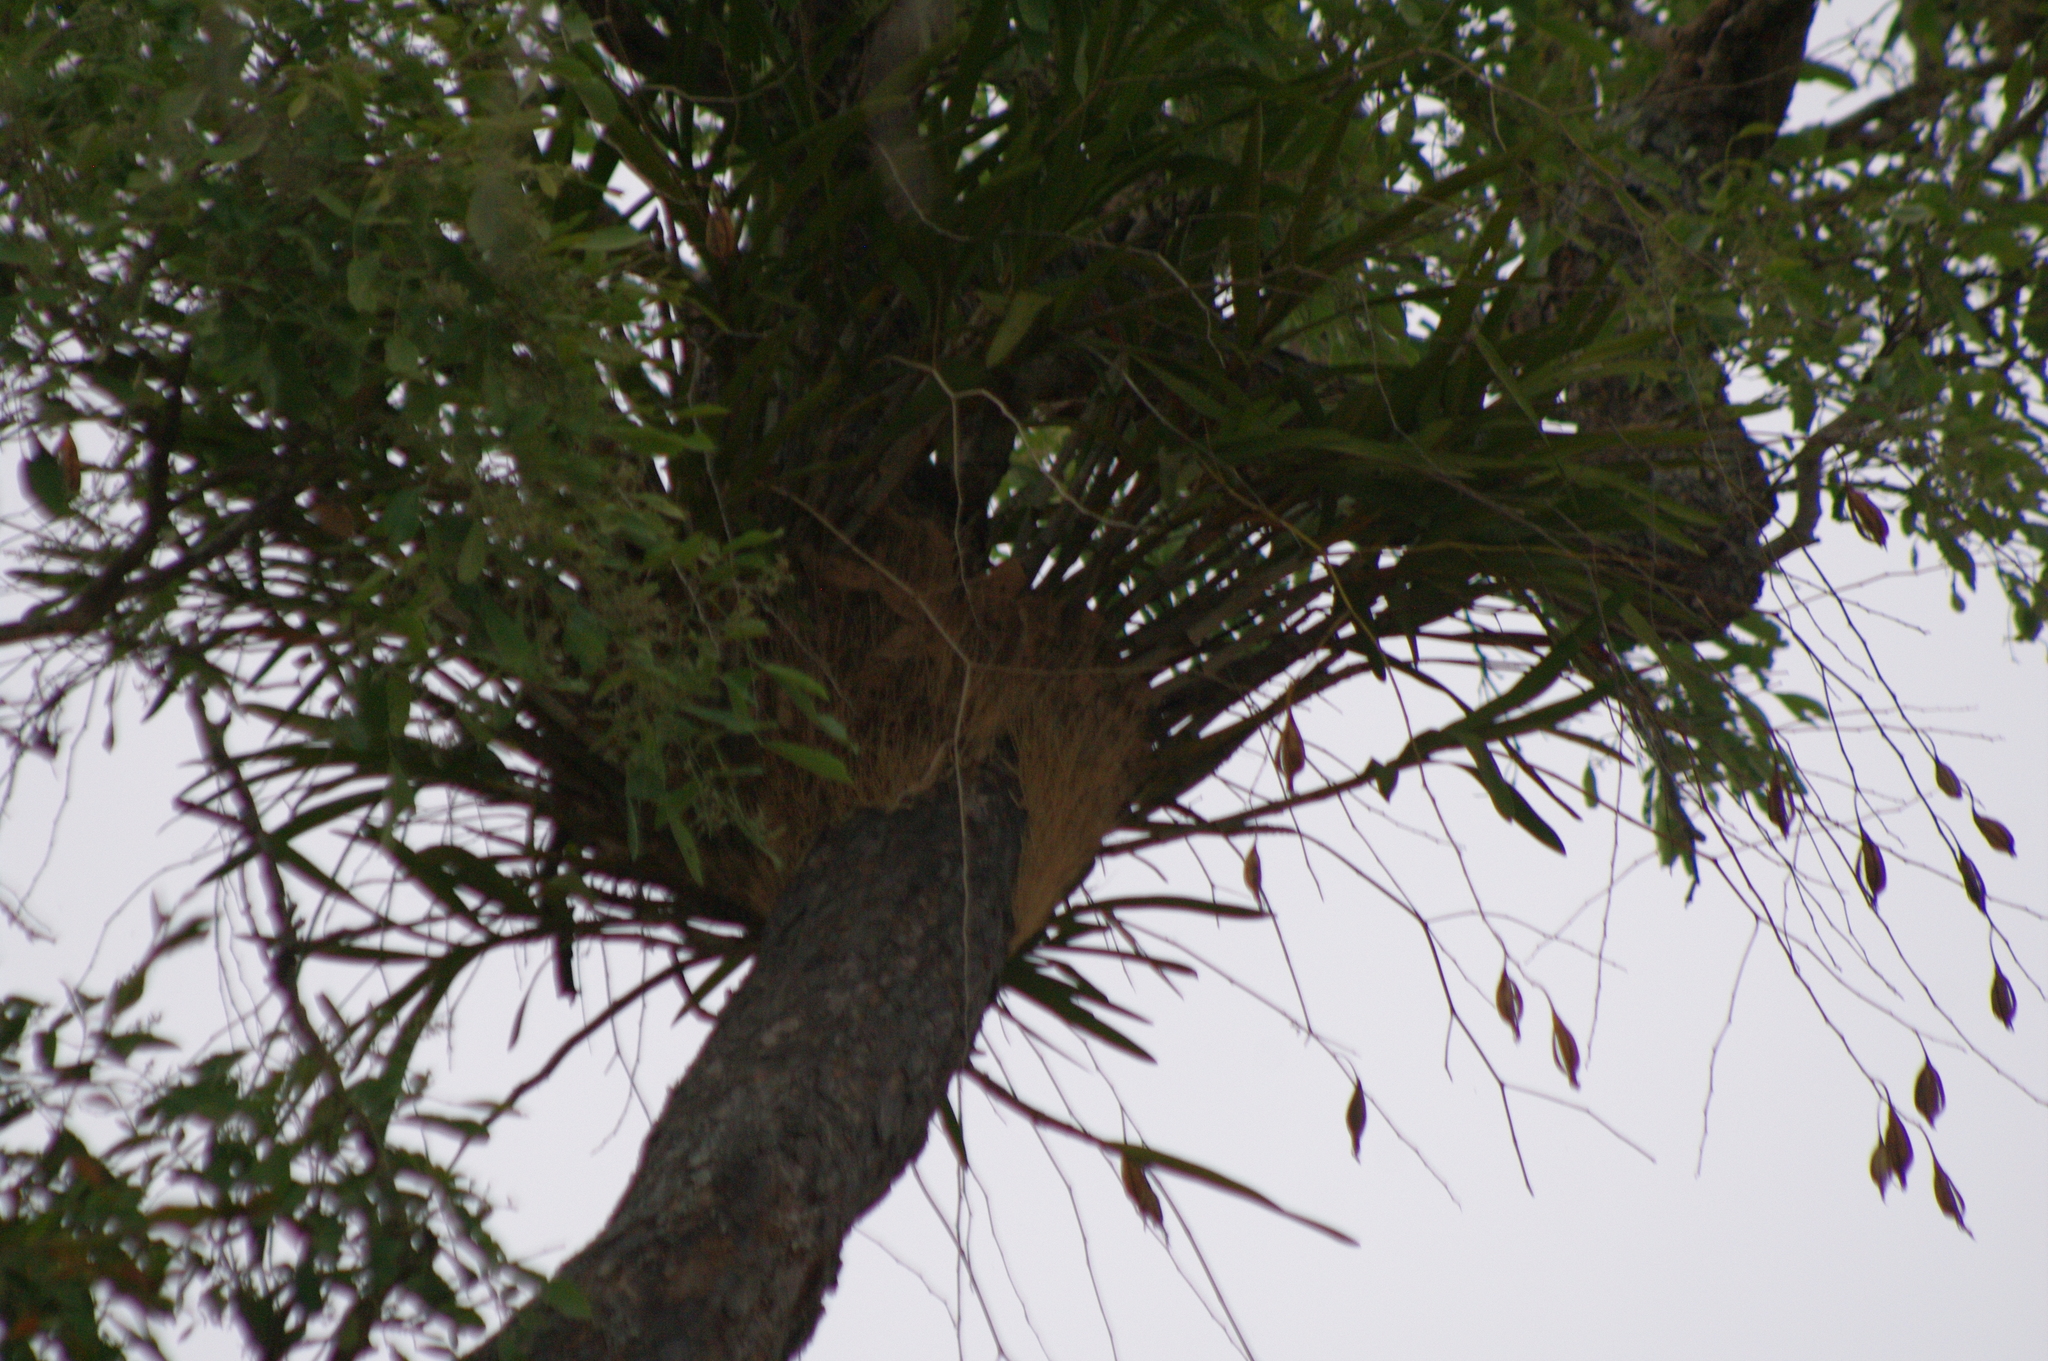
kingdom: Plantae
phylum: Tracheophyta
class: Liliopsida
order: Asparagales
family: Orchidaceae
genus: Ansellia
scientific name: Ansellia africana
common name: African ansellia
